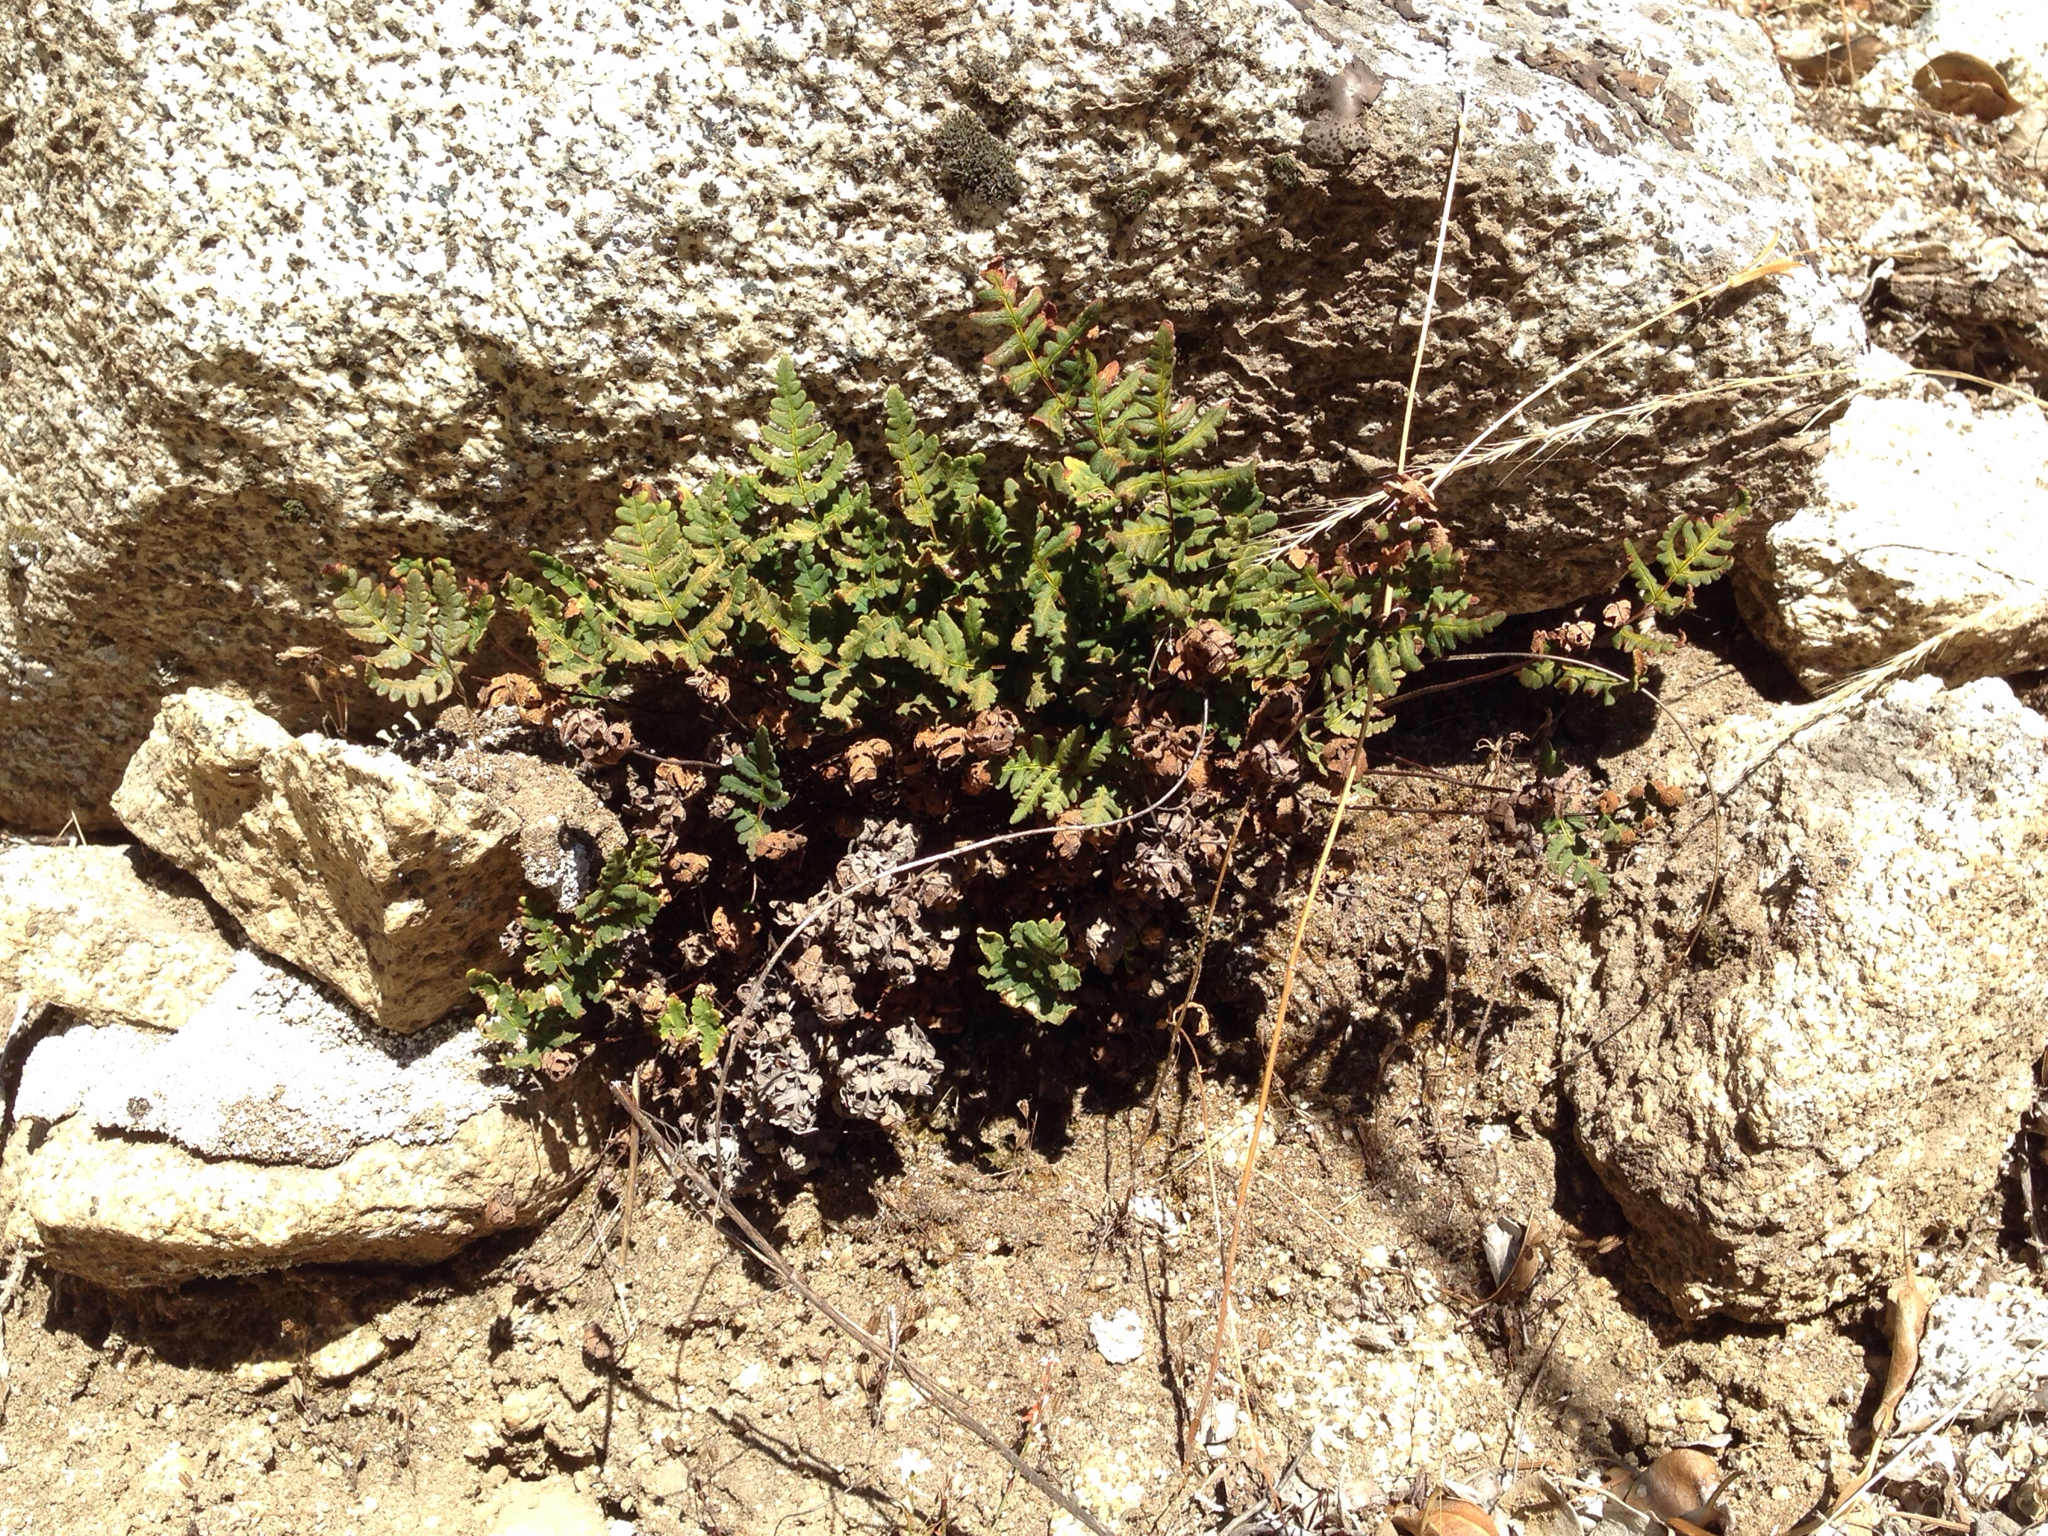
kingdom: Plantae
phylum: Tracheophyta
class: Polypodiopsida
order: Polypodiales
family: Pteridaceae
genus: Pentagramma
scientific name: Pentagramma triangularis
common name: Gold fern
